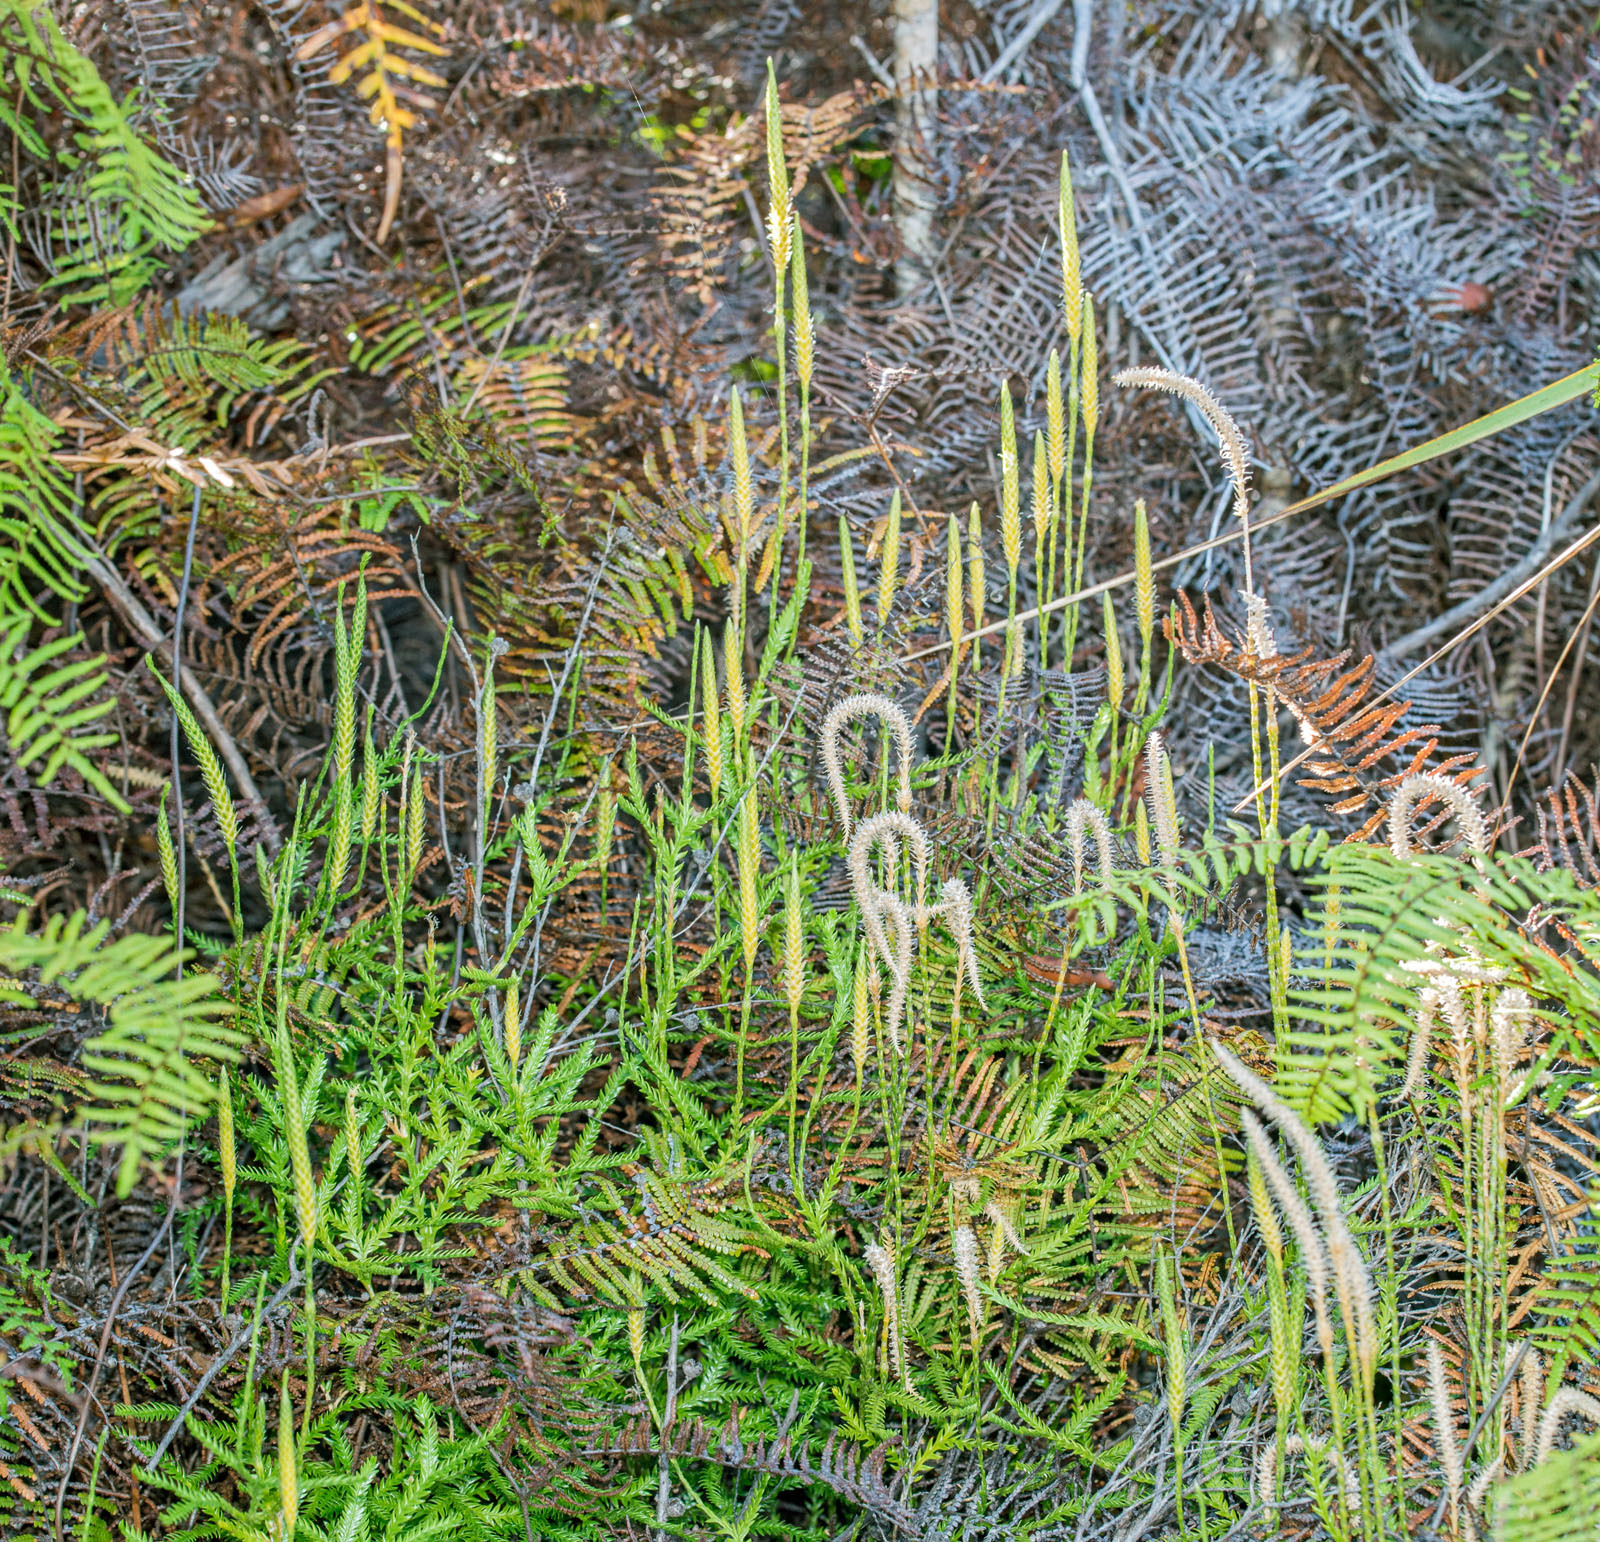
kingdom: Plantae
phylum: Tracheophyta
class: Lycopodiopsida
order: Lycopodiales
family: Lycopodiaceae
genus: Diphasium
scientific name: Diphasium scariosum
